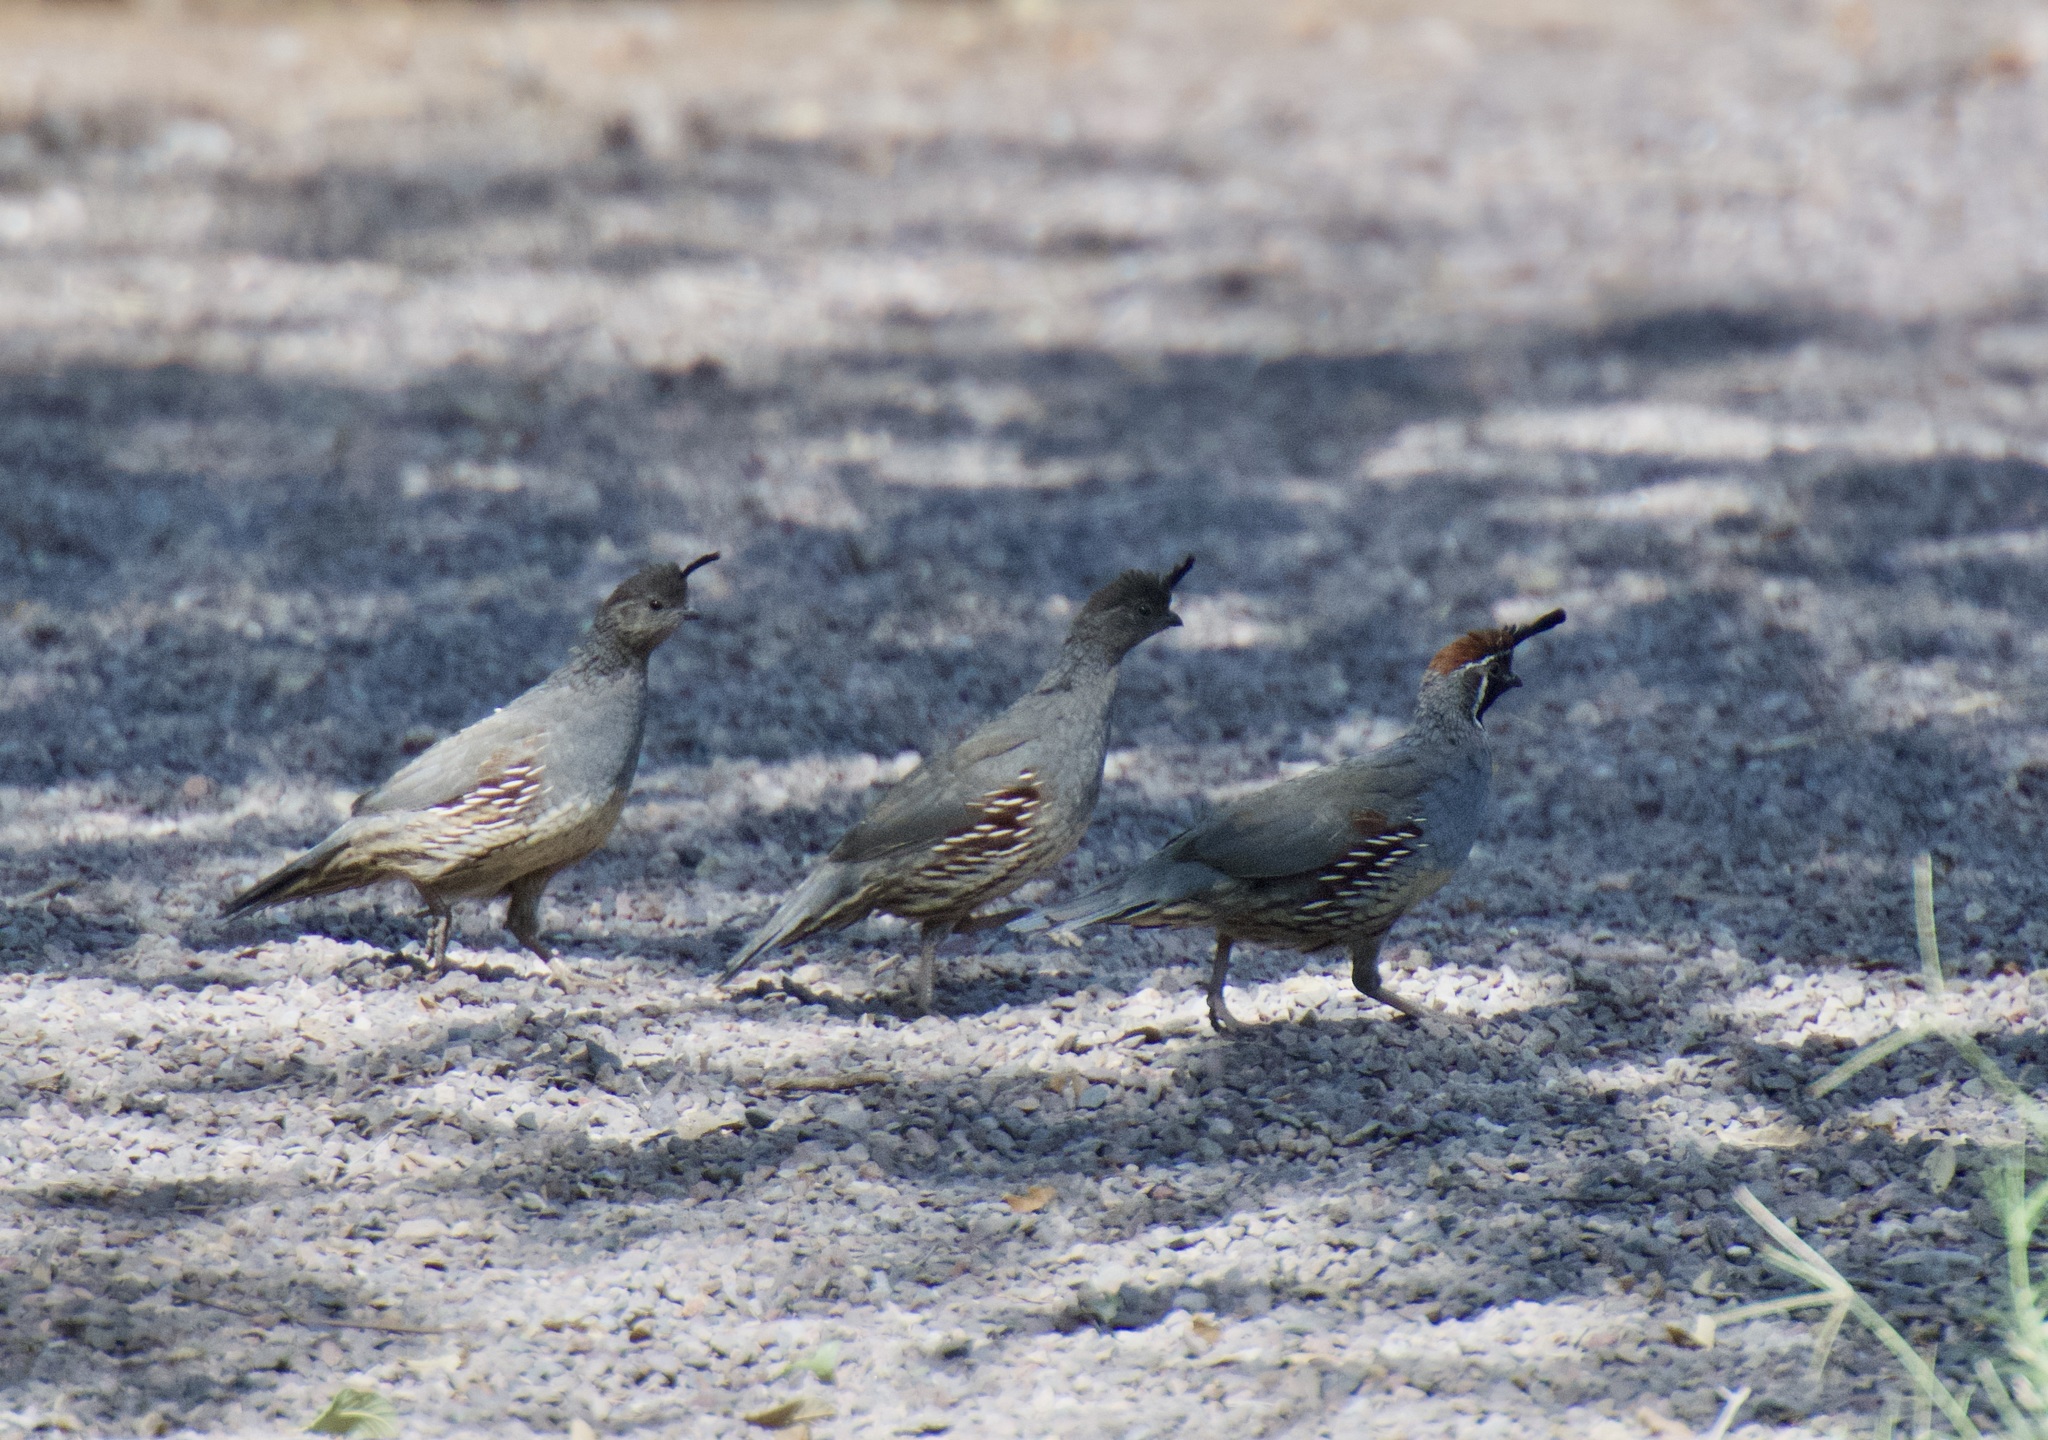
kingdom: Animalia
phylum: Chordata
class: Aves
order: Galliformes
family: Odontophoridae
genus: Callipepla
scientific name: Callipepla gambelii
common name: Gambel's quail
